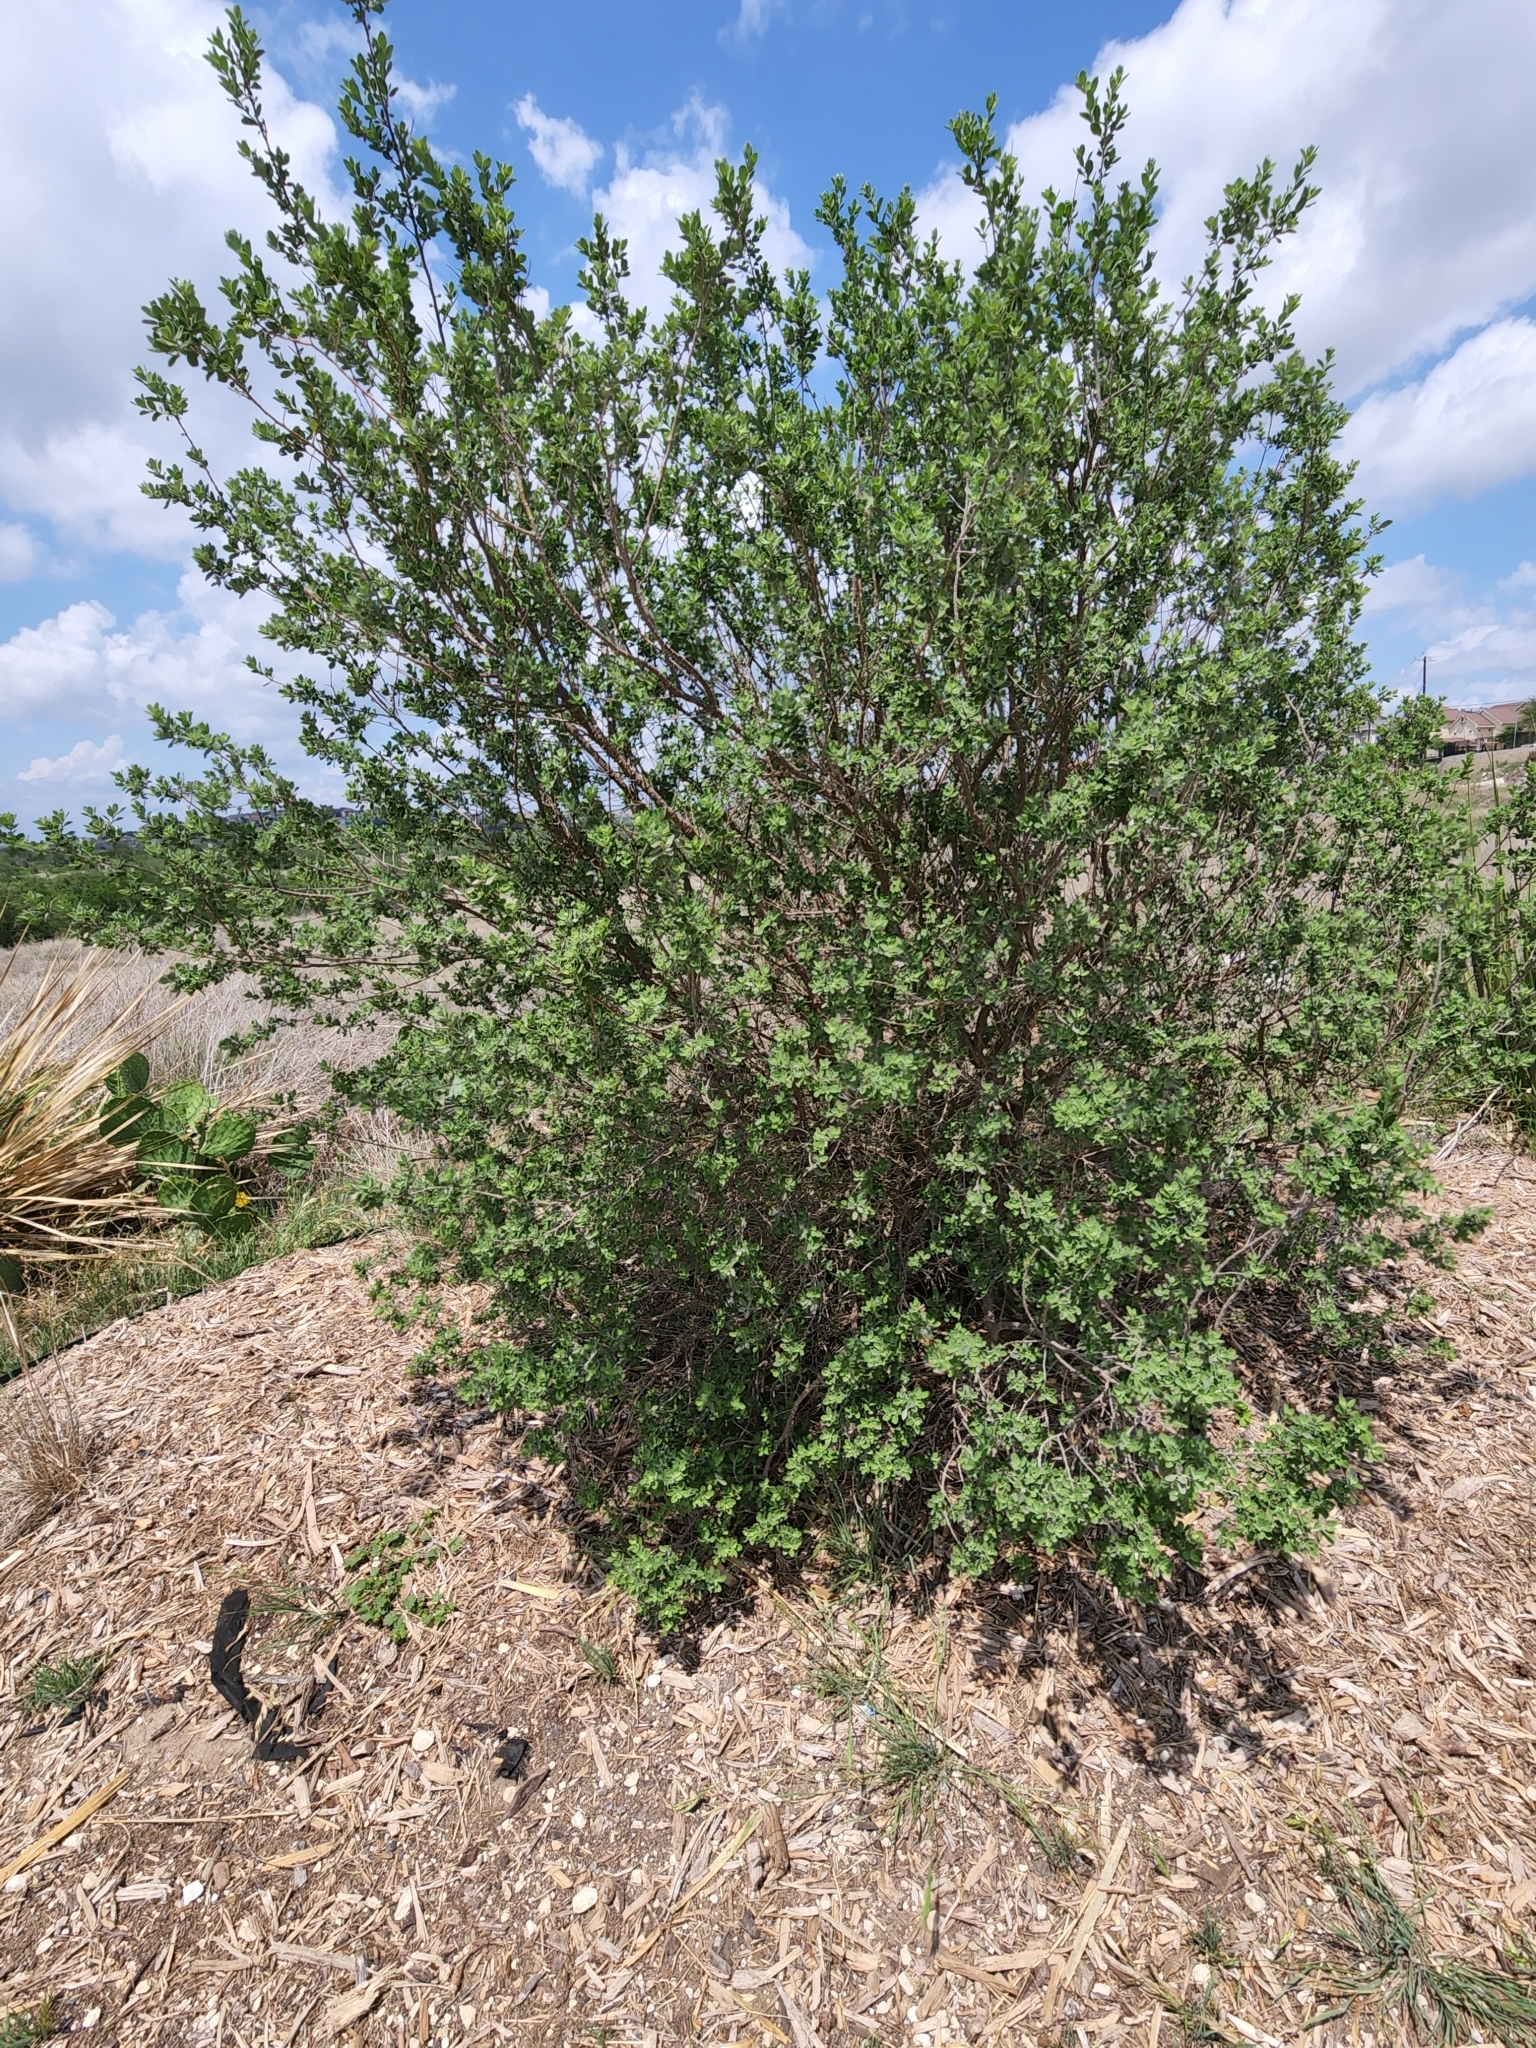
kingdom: Plantae
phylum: Tracheophyta
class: Magnoliopsida
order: Lamiales
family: Scrophulariaceae
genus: Leucophyllum
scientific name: Leucophyllum frutescens
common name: Texas silverleaf
